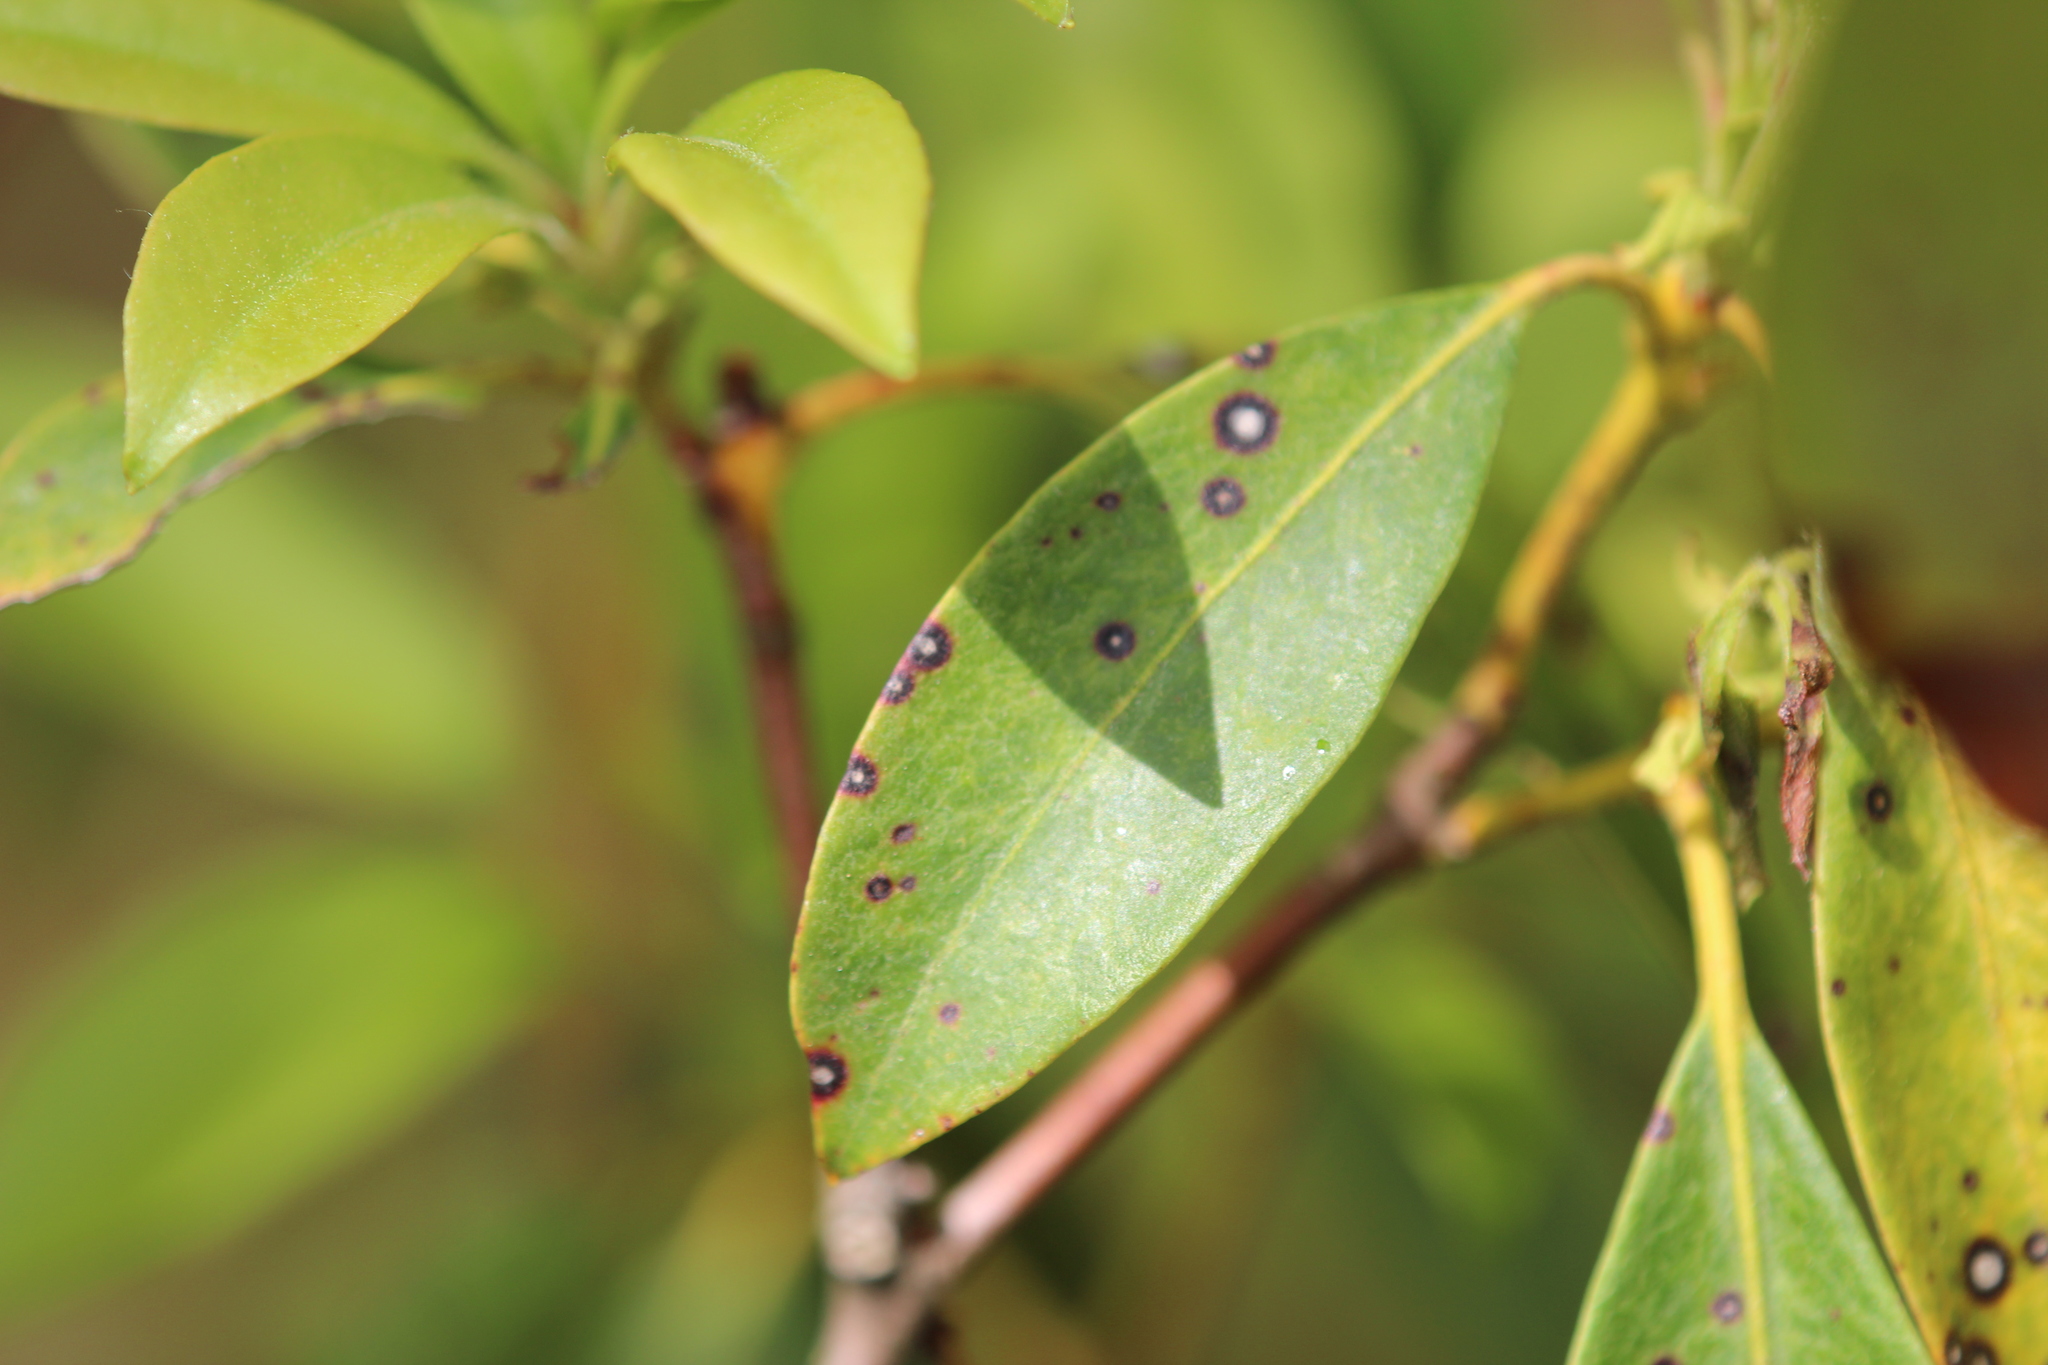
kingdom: Plantae
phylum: Tracheophyta
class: Magnoliopsida
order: Ericales
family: Ericaceae
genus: Kalmia
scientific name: Kalmia latifolia
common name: Mountain-laurel
